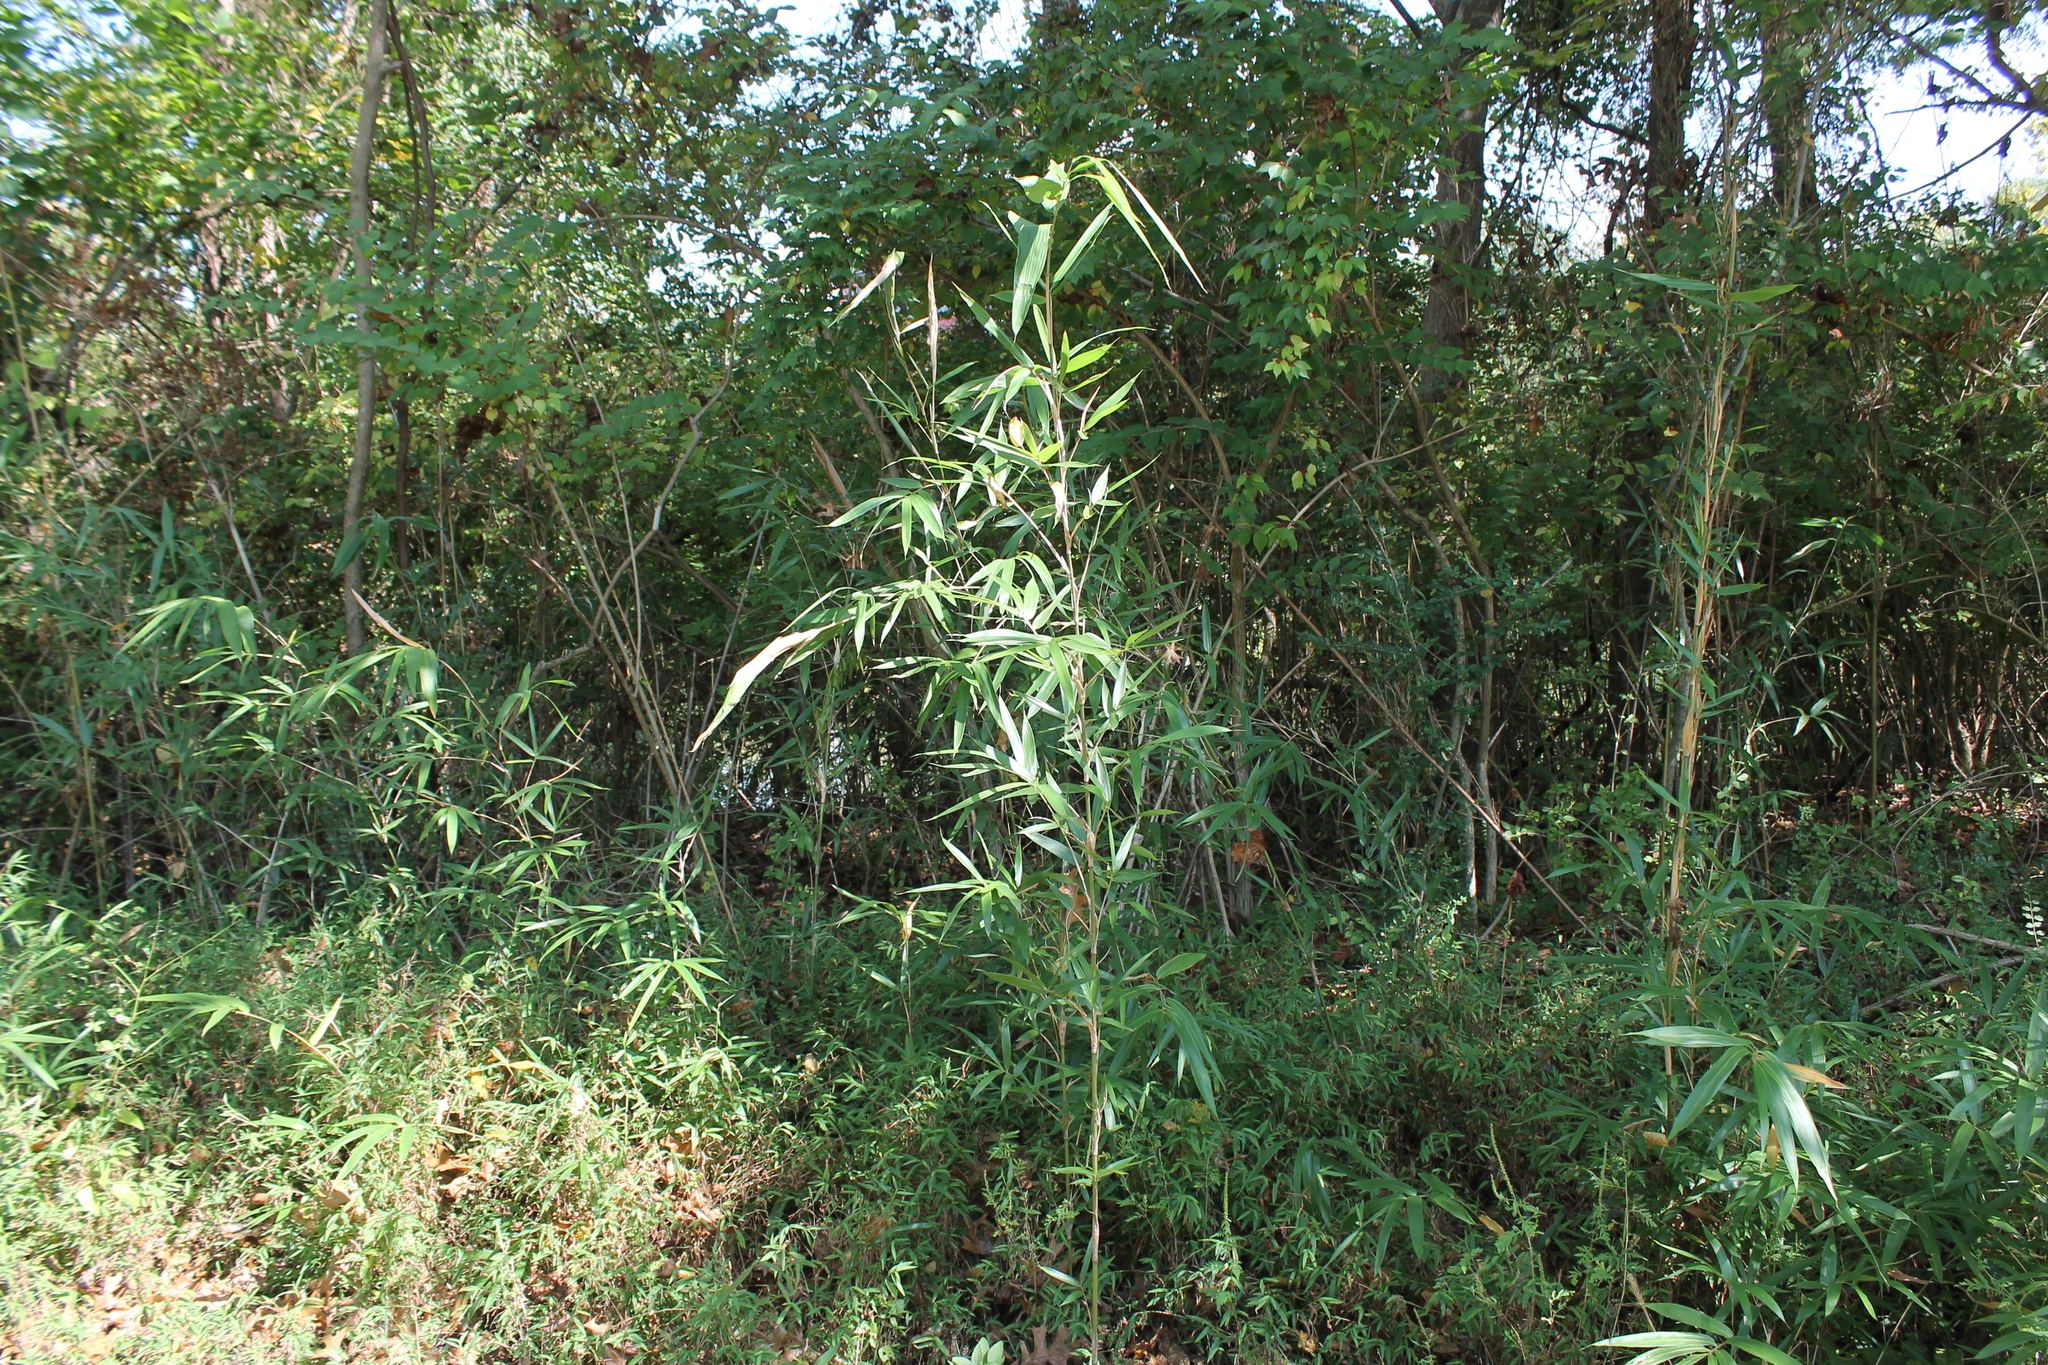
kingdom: Plantae
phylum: Tracheophyta
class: Liliopsida
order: Poales
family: Poaceae
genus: Arundinaria
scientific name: Arundinaria gigantea
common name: Giant cane
